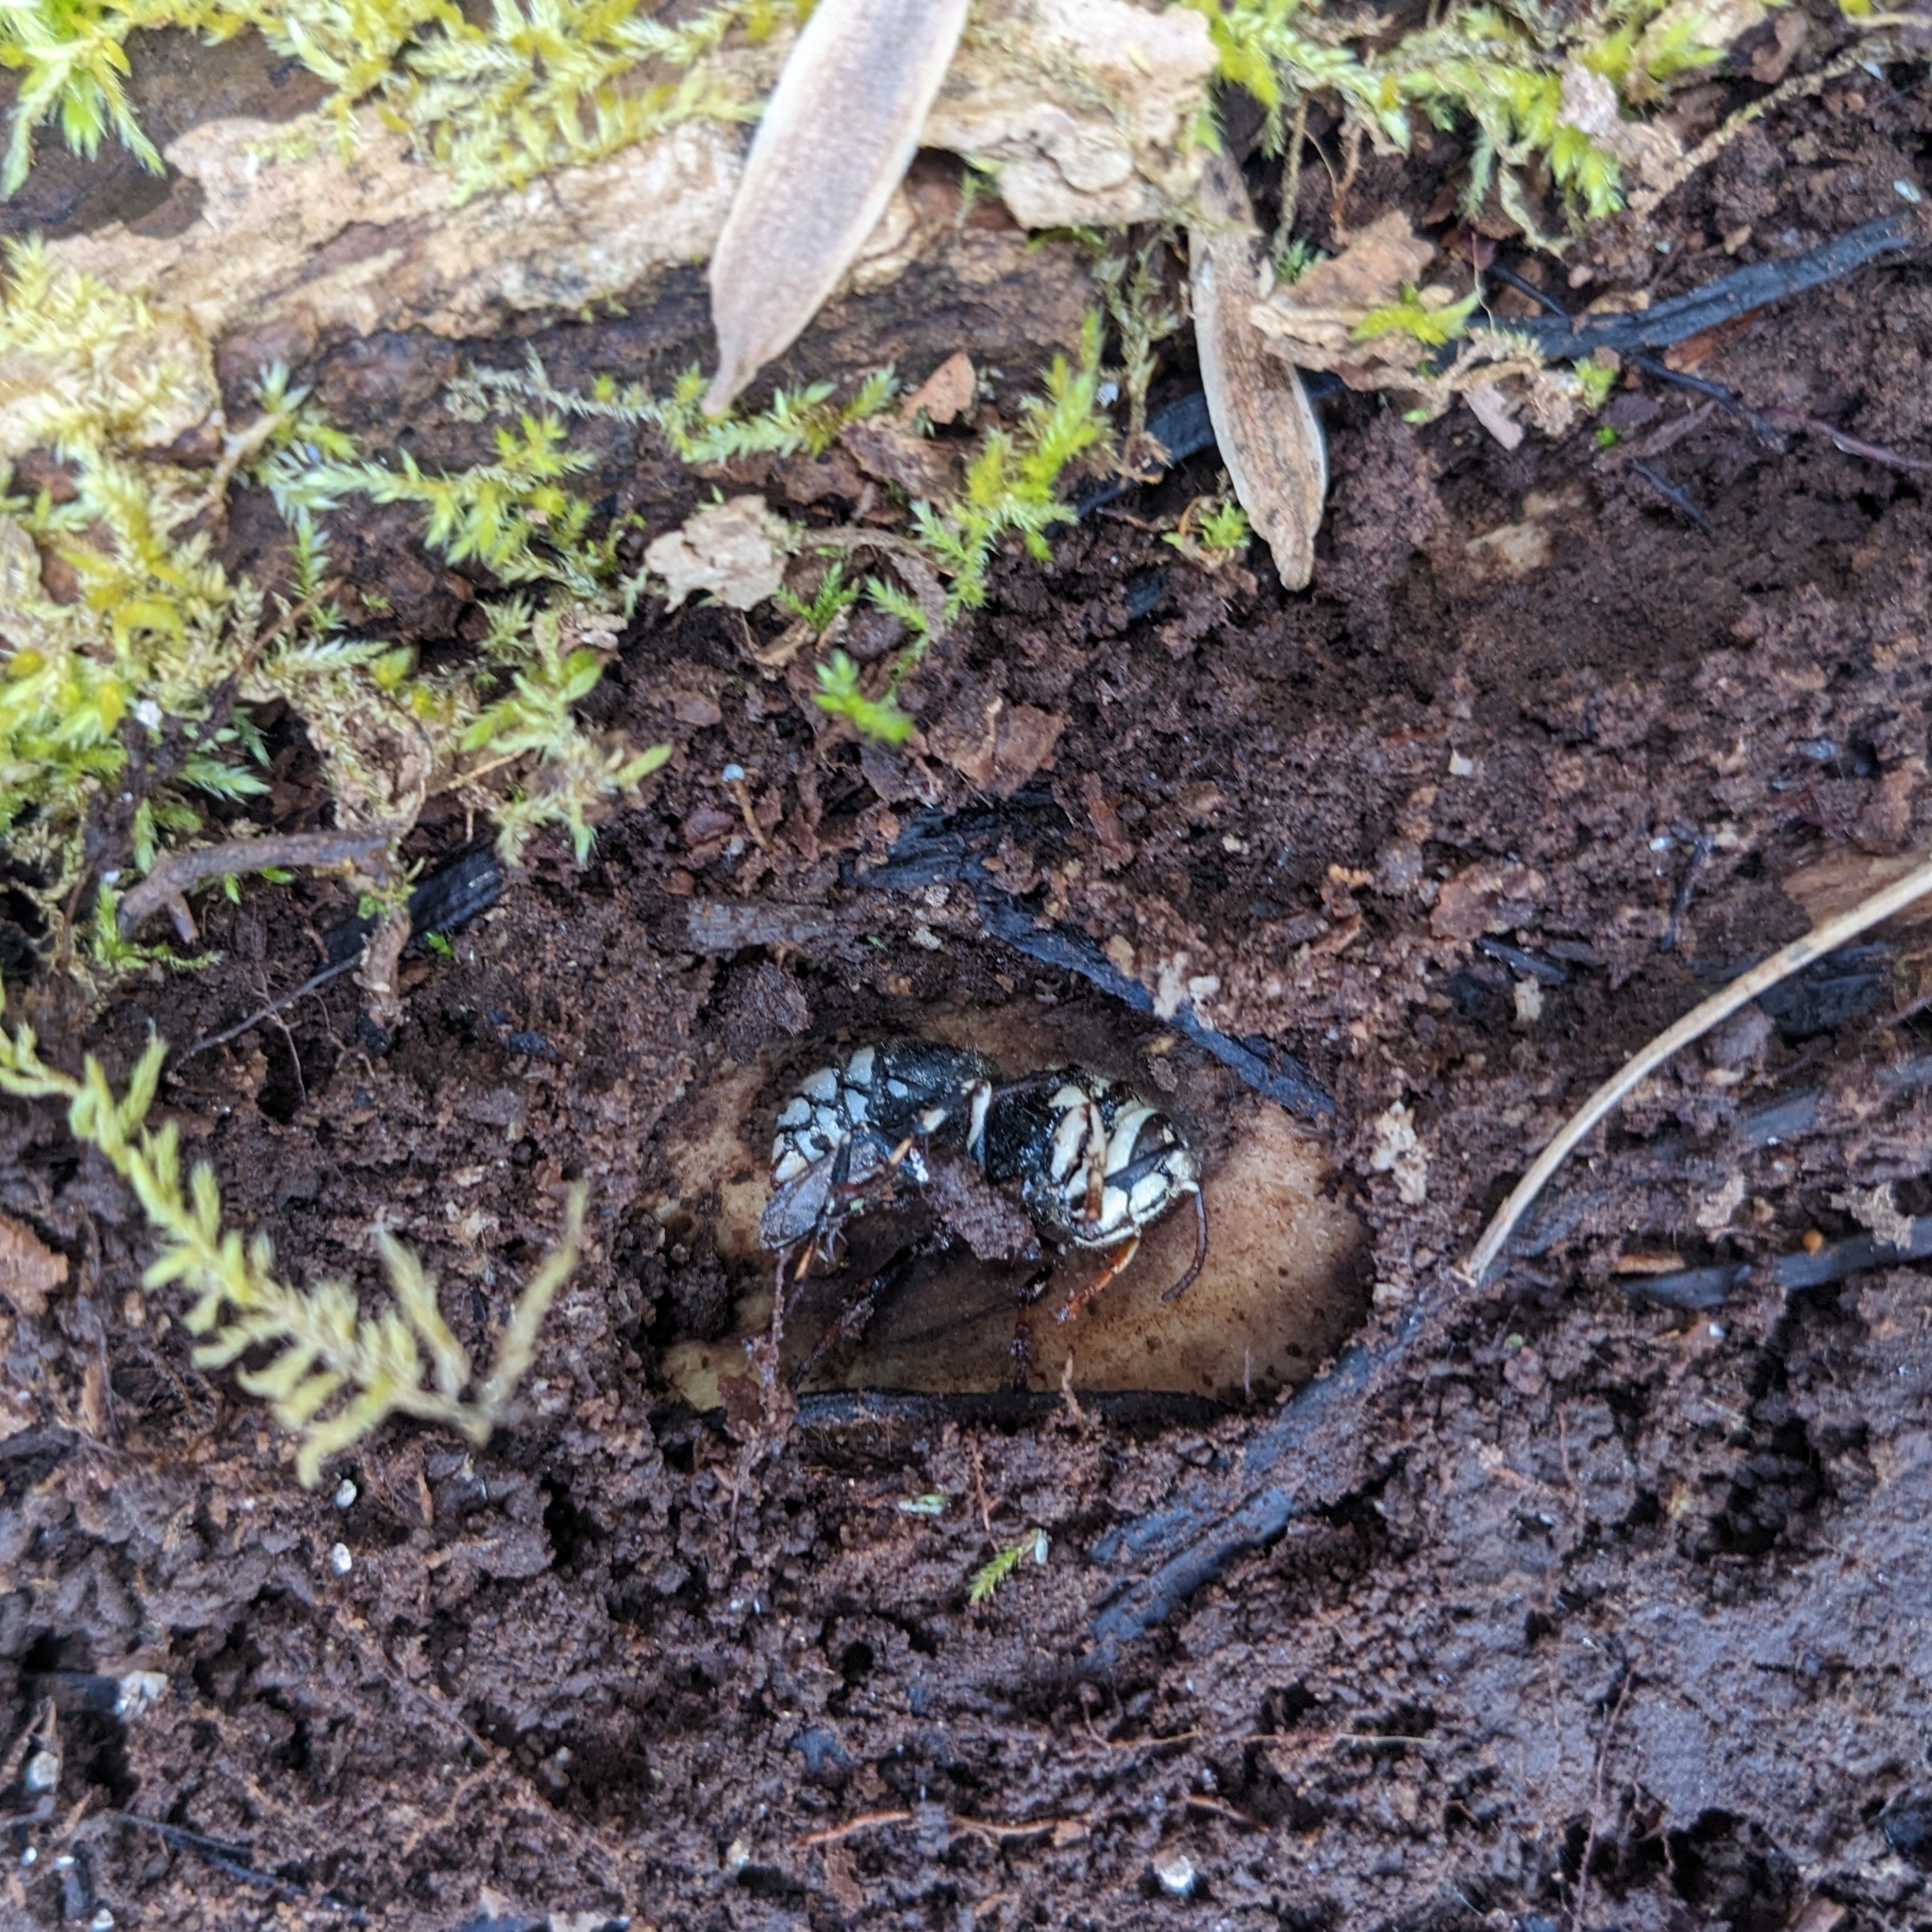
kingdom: Animalia
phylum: Arthropoda
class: Insecta
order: Hymenoptera
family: Vespidae
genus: Dolichovespula
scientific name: Dolichovespula maculata
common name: Bald-faced hornet
